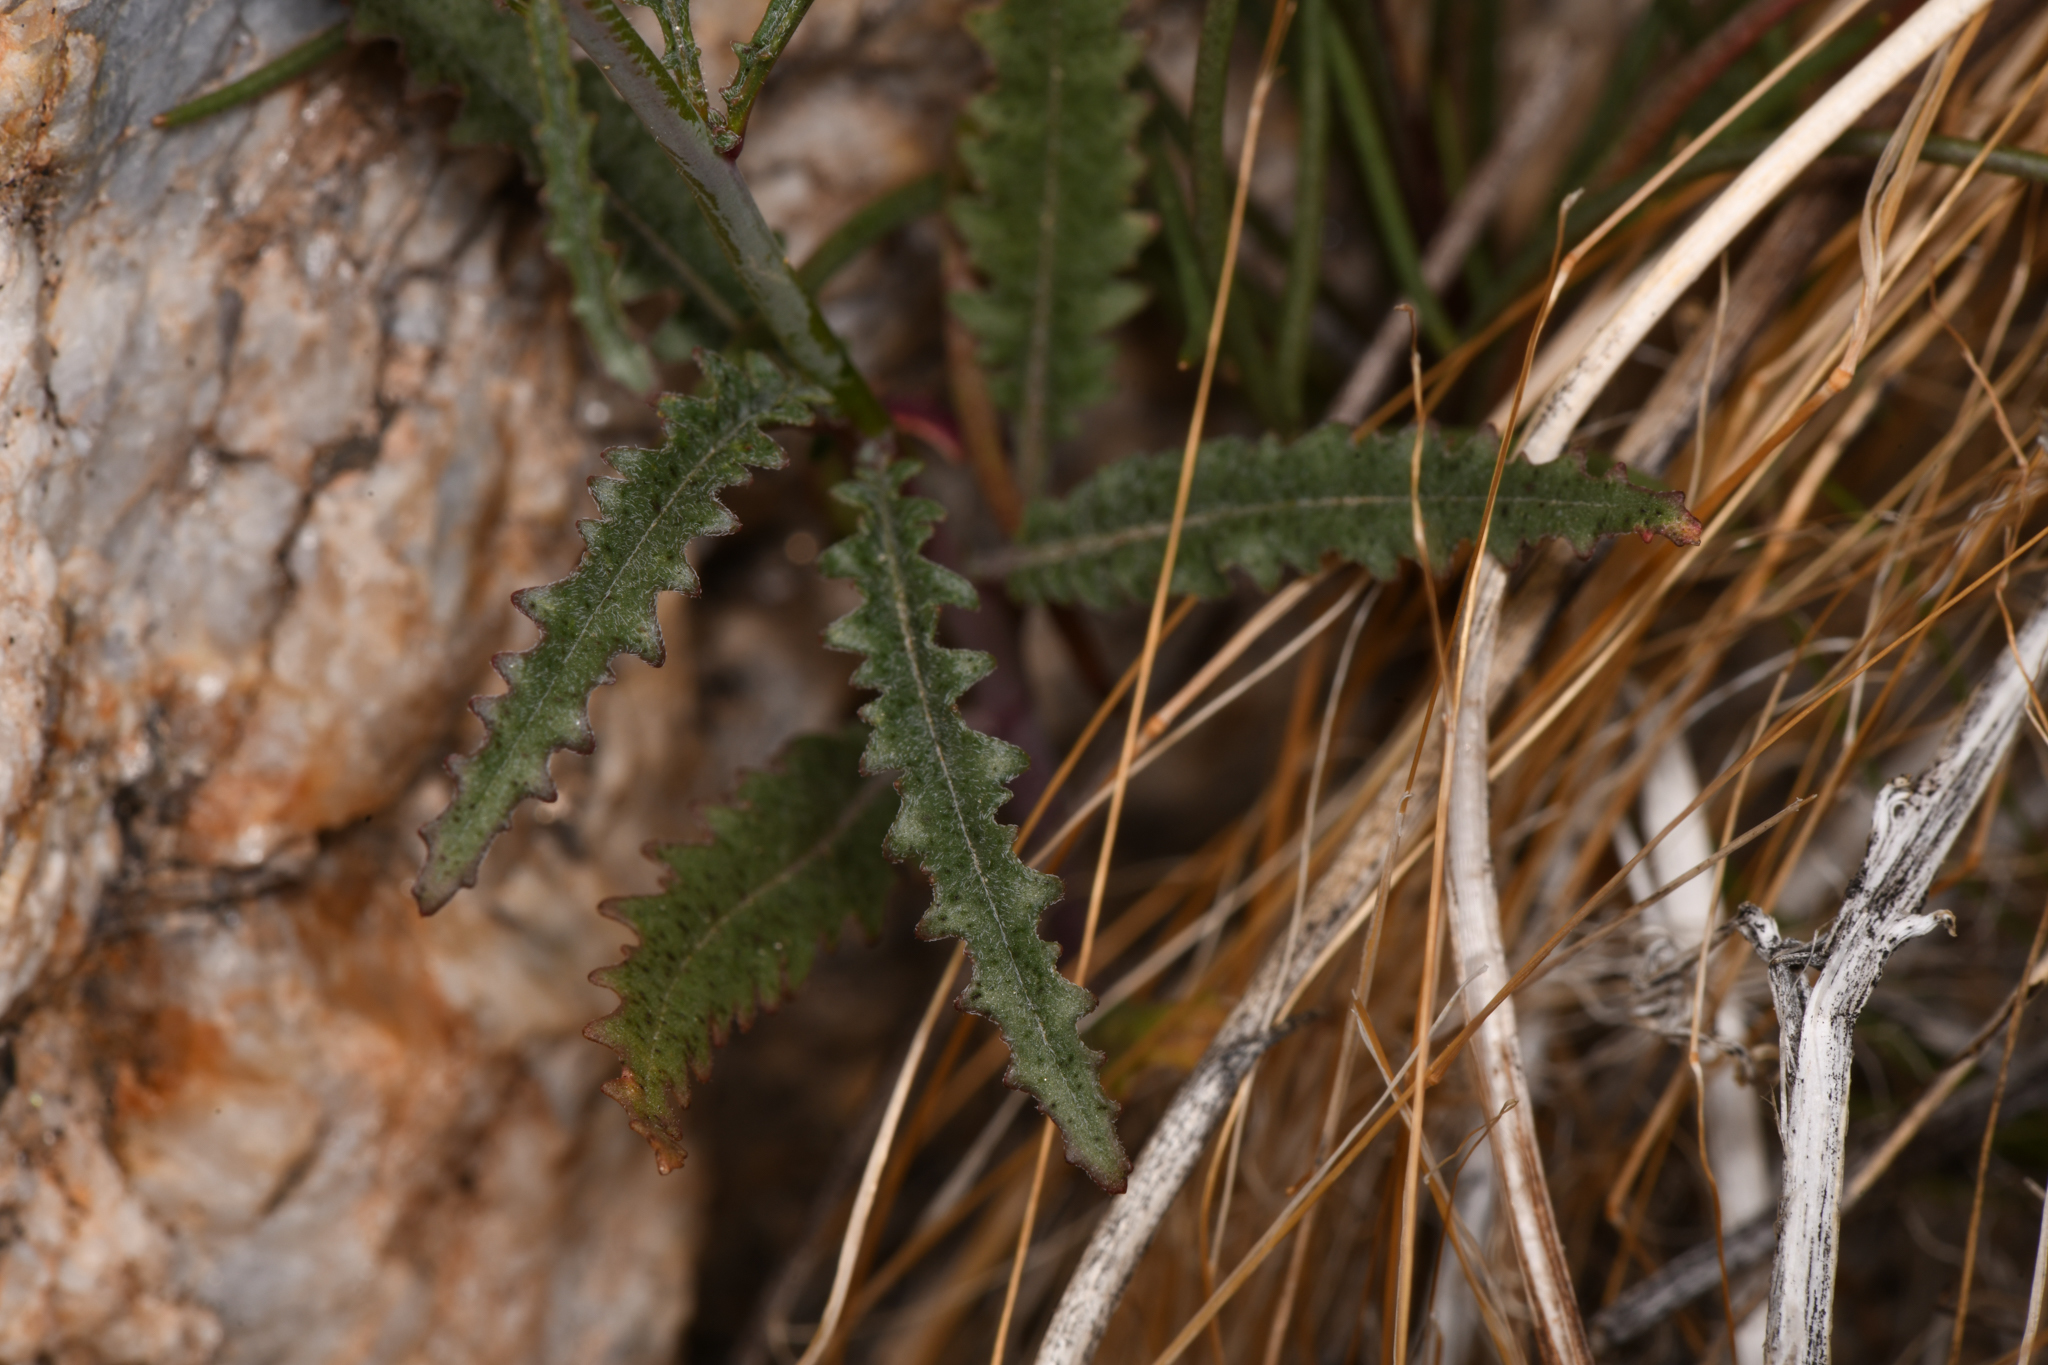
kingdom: Plantae
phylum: Tracheophyta
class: Magnoliopsida
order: Myrtales
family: Onagraceae
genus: Eulobus
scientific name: Eulobus californicus
